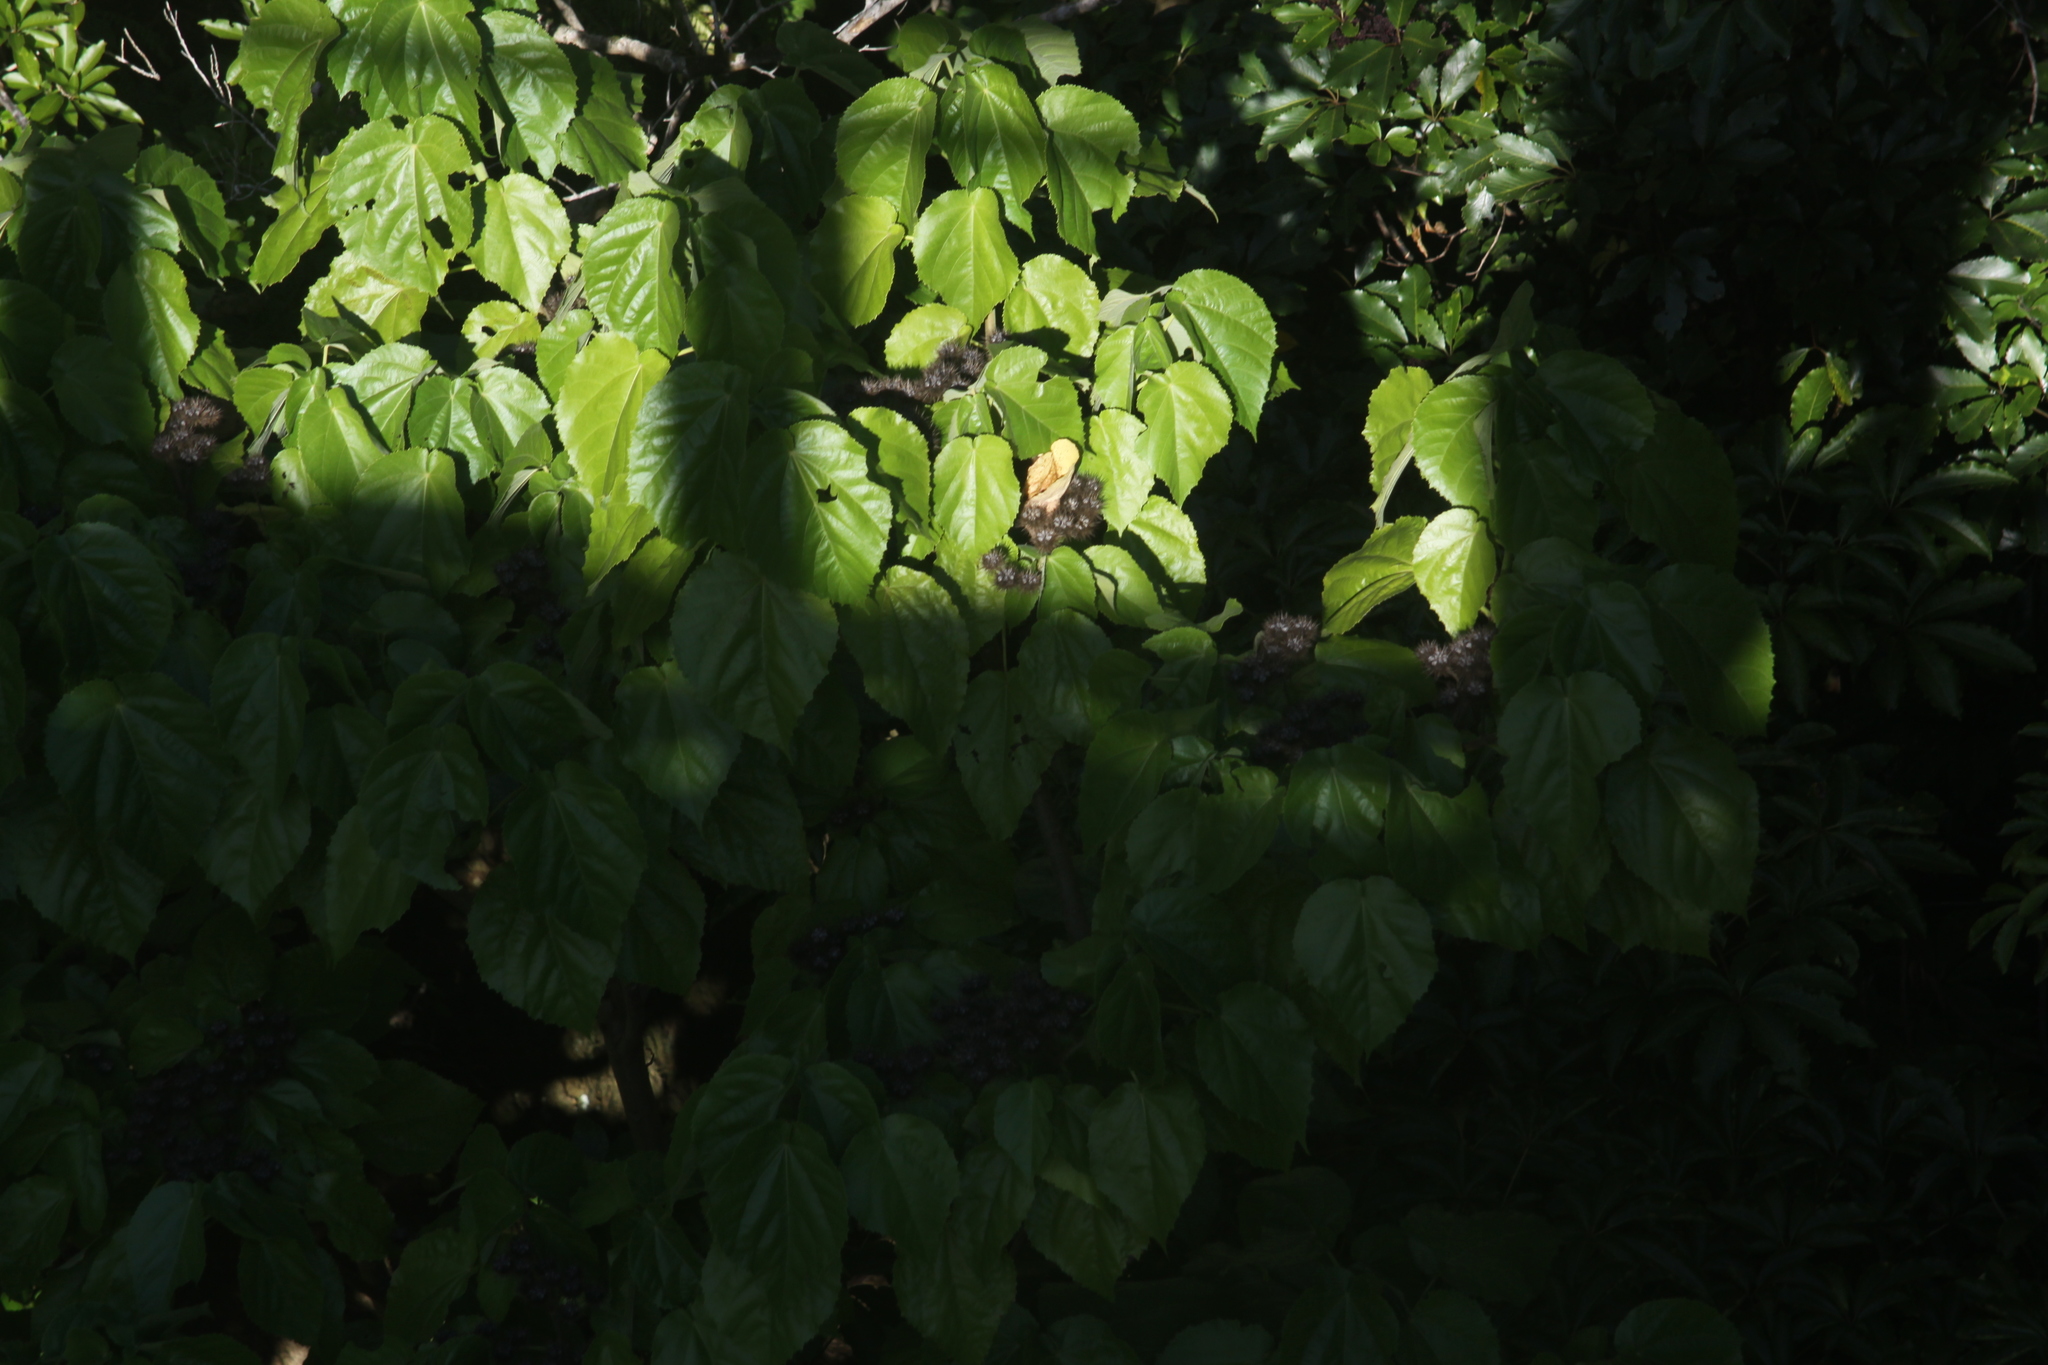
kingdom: Plantae
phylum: Tracheophyta
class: Magnoliopsida
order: Malvales
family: Malvaceae
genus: Entelea
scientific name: Entelea arborescens
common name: New zealand-mulberry
